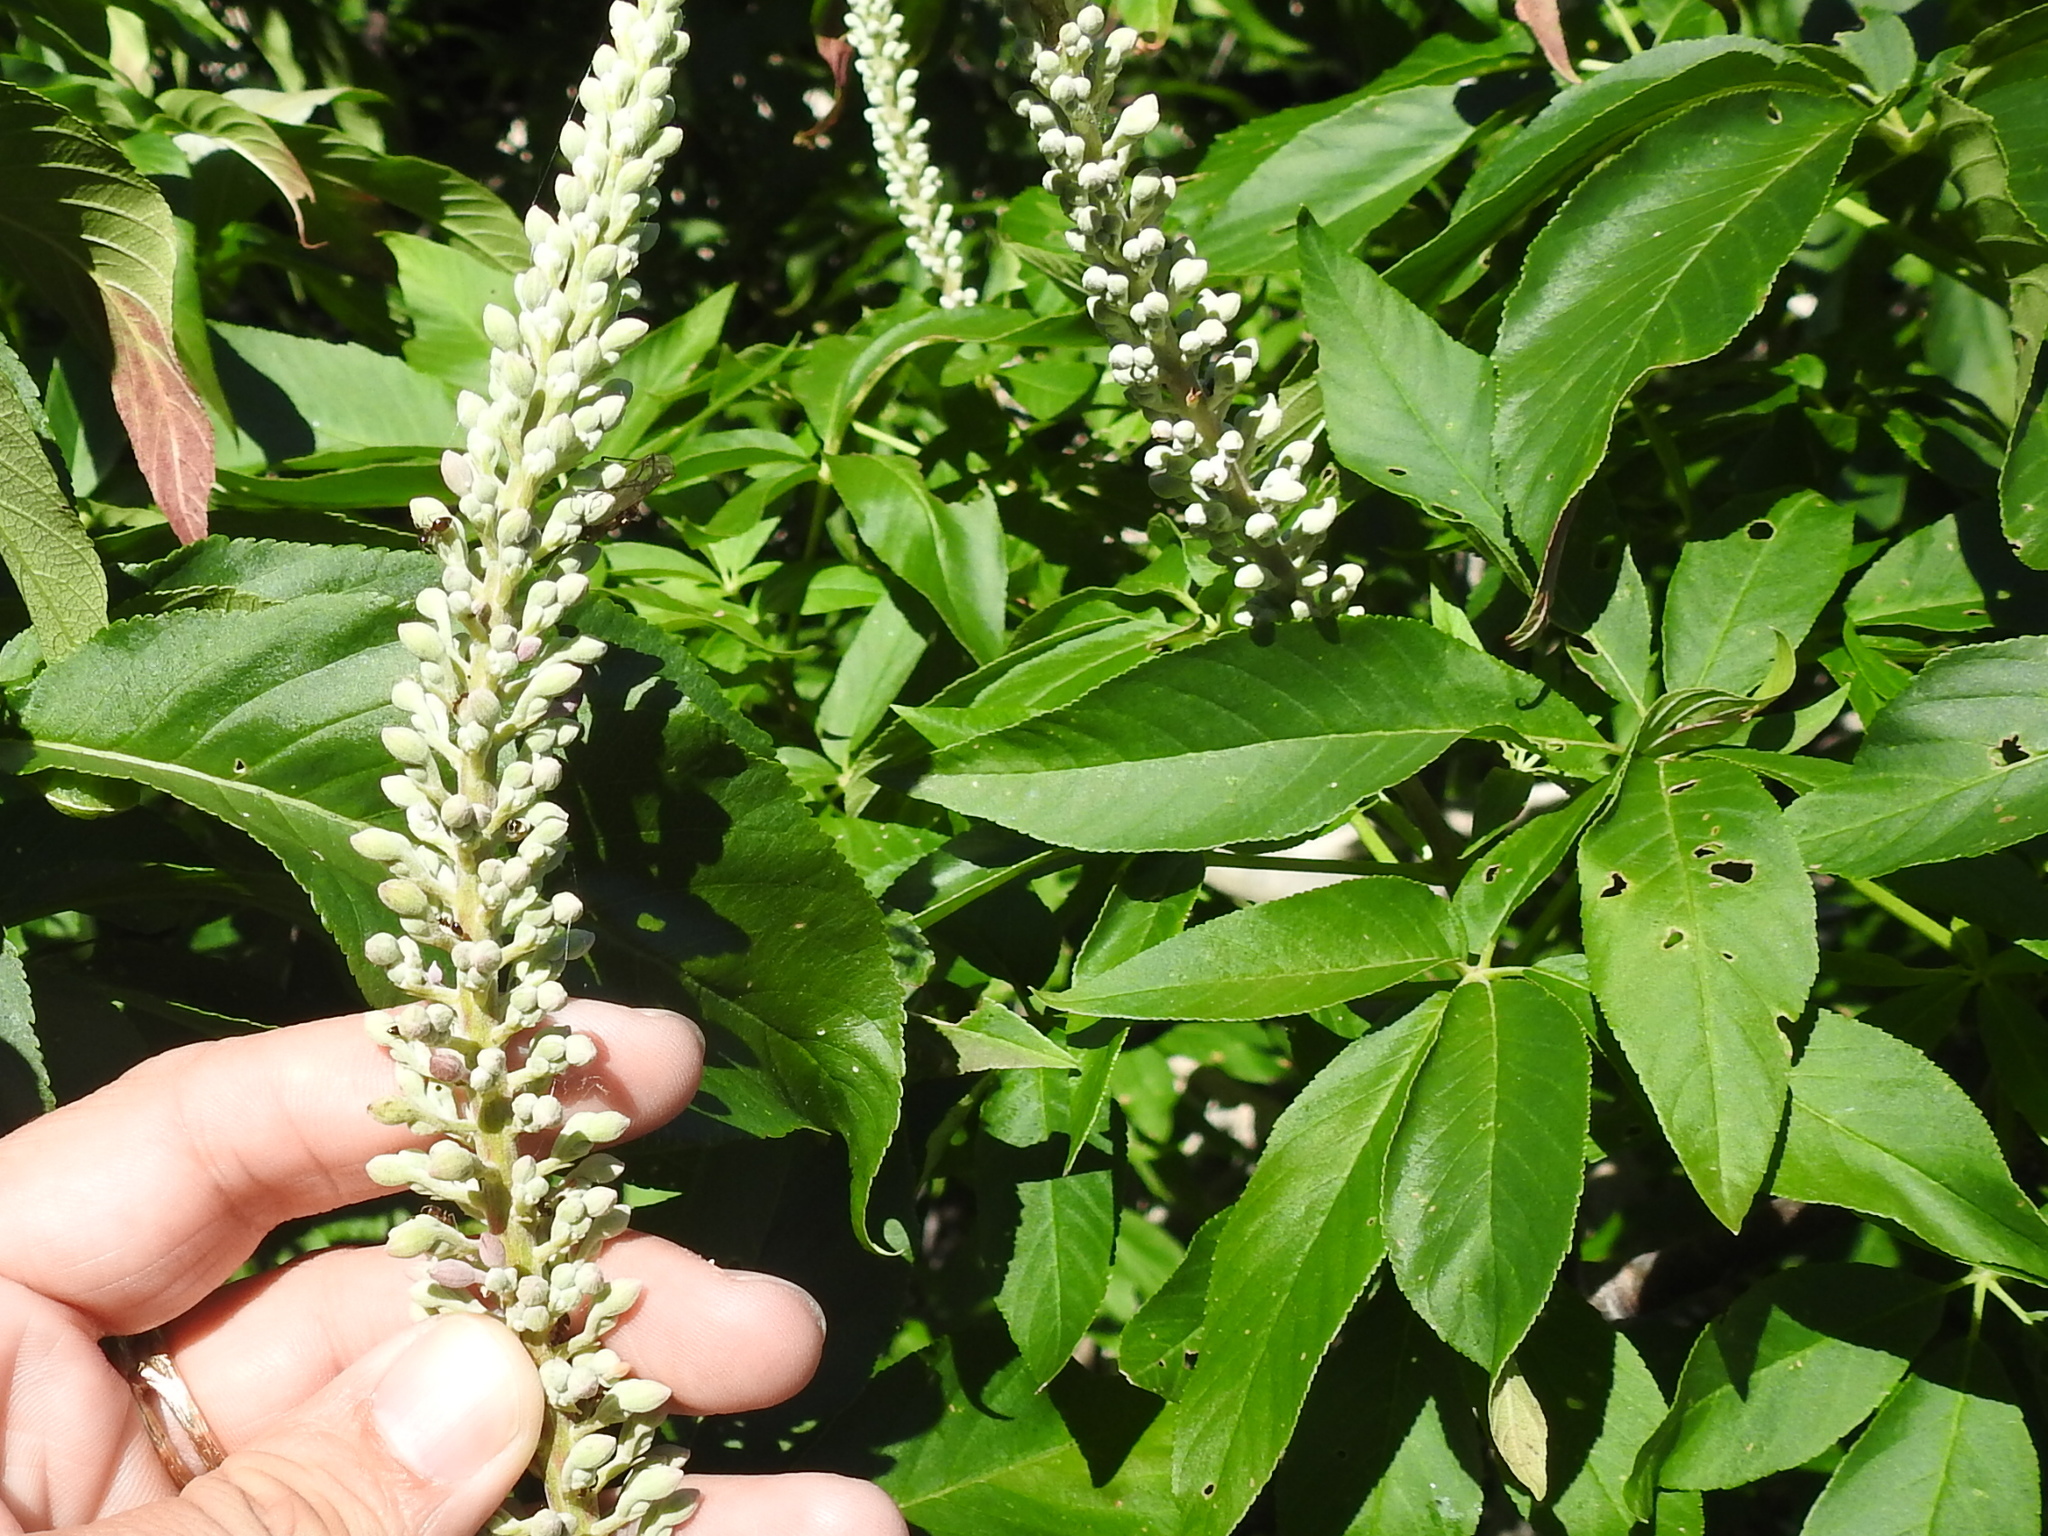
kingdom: Plantae
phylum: Tracheophyta
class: Magnoliopsida
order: Sapindales
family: Sapindaceae
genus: Aesculus
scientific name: Aesculus californica
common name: California buckeye
